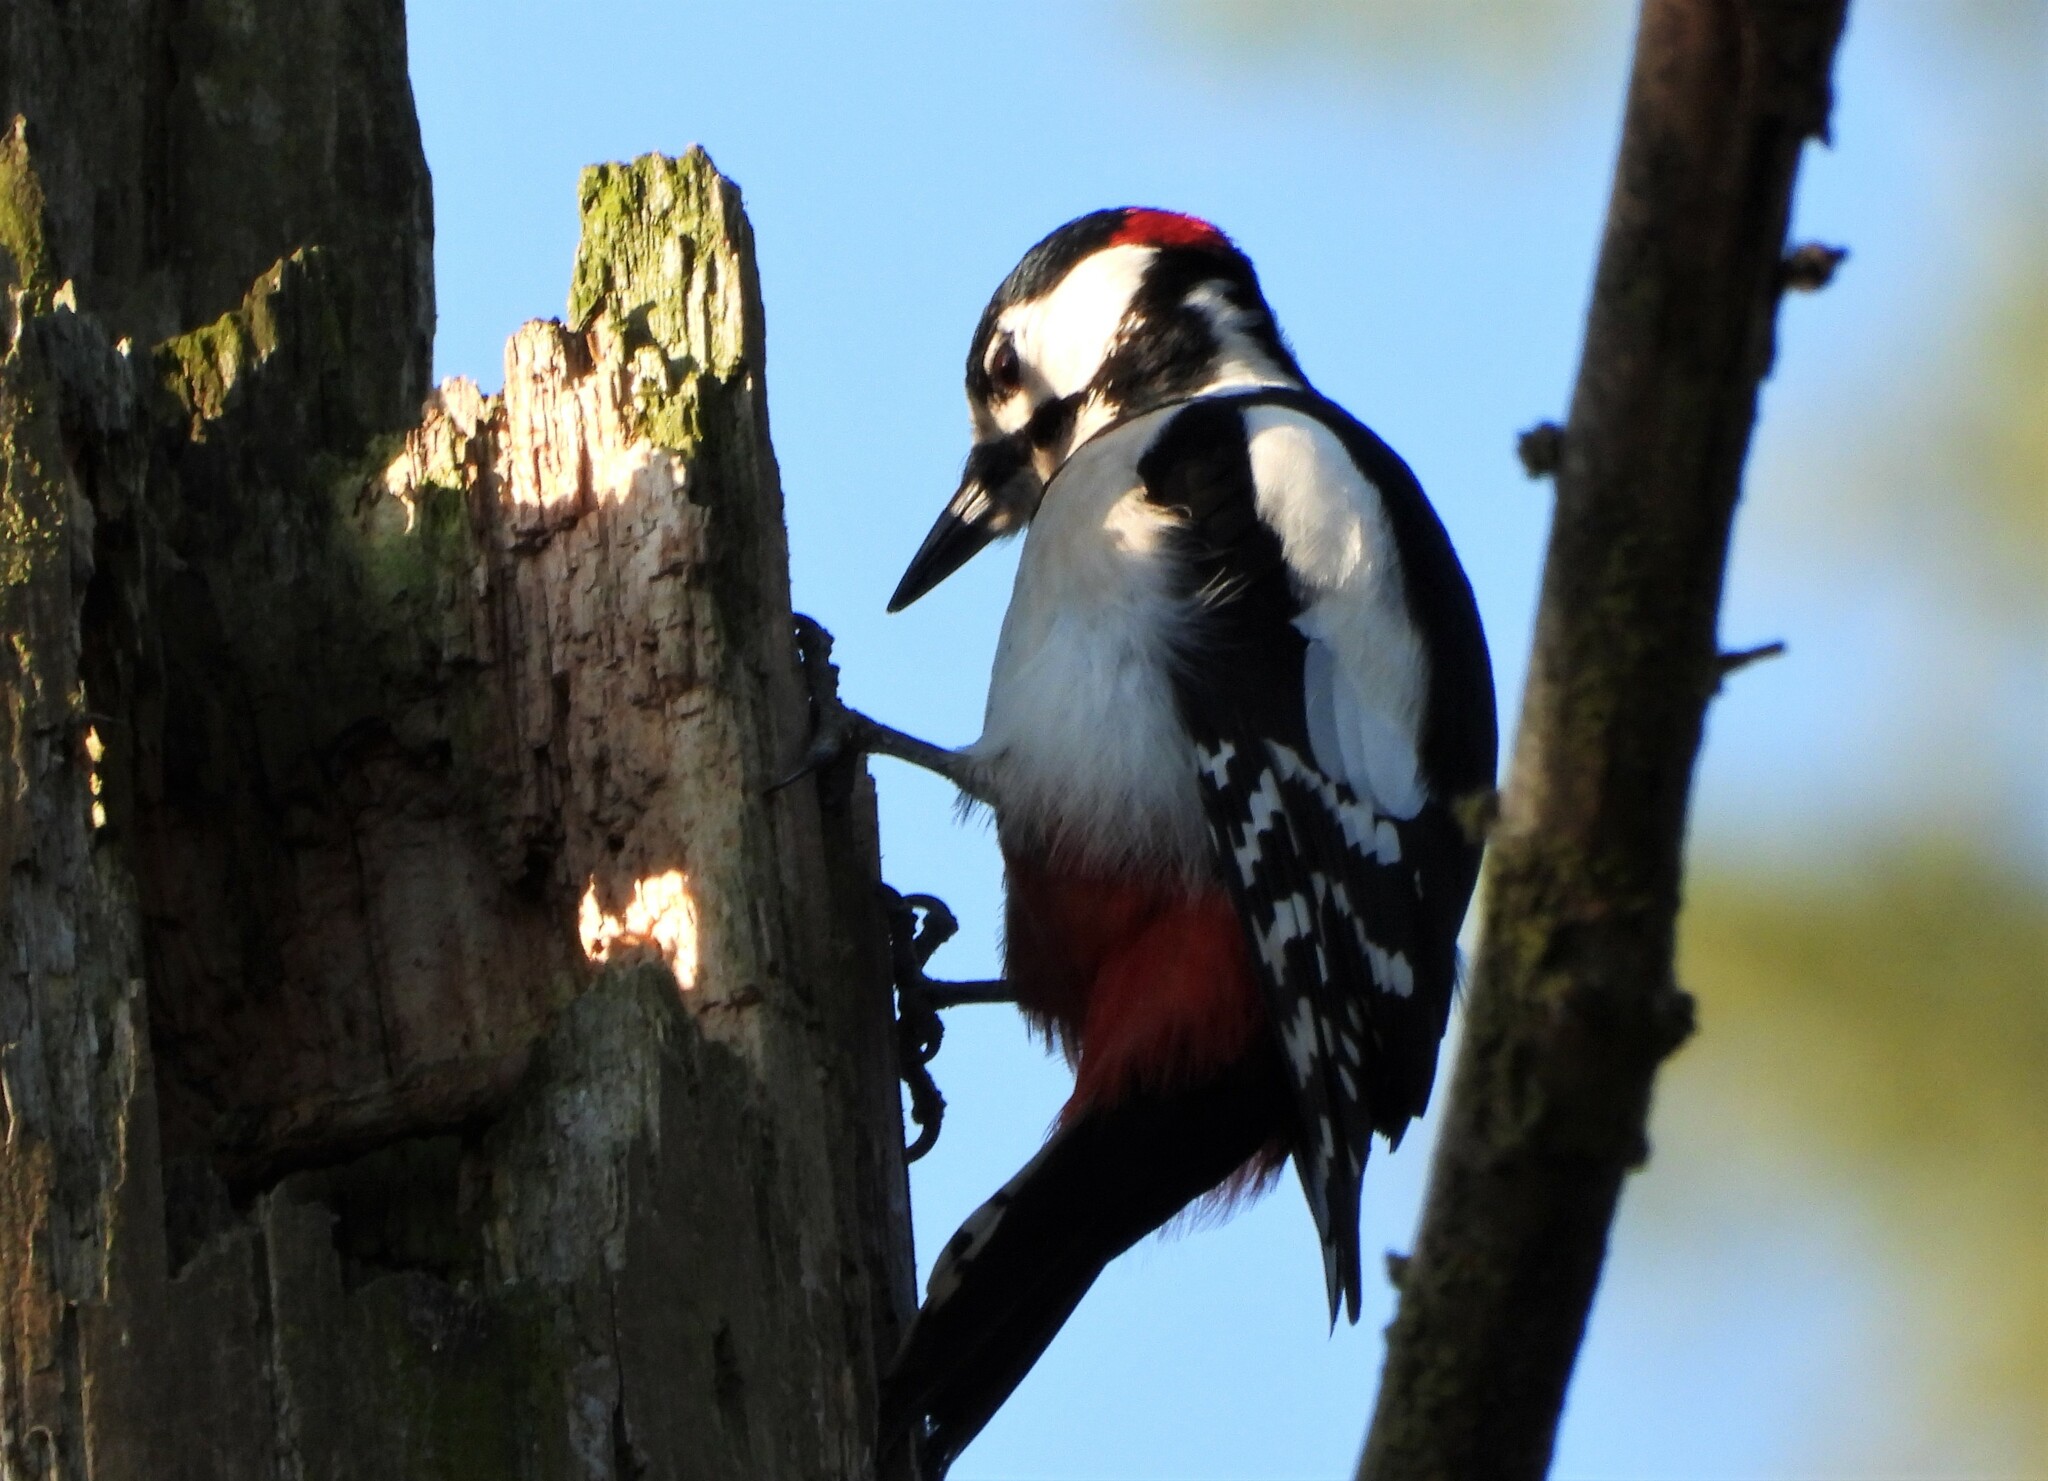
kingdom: Animalia
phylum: Chordata
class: Aves
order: Piciformes
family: Picidae
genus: Dendrocopos
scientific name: Dendrocopos major
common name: Great spotted woodpecker
